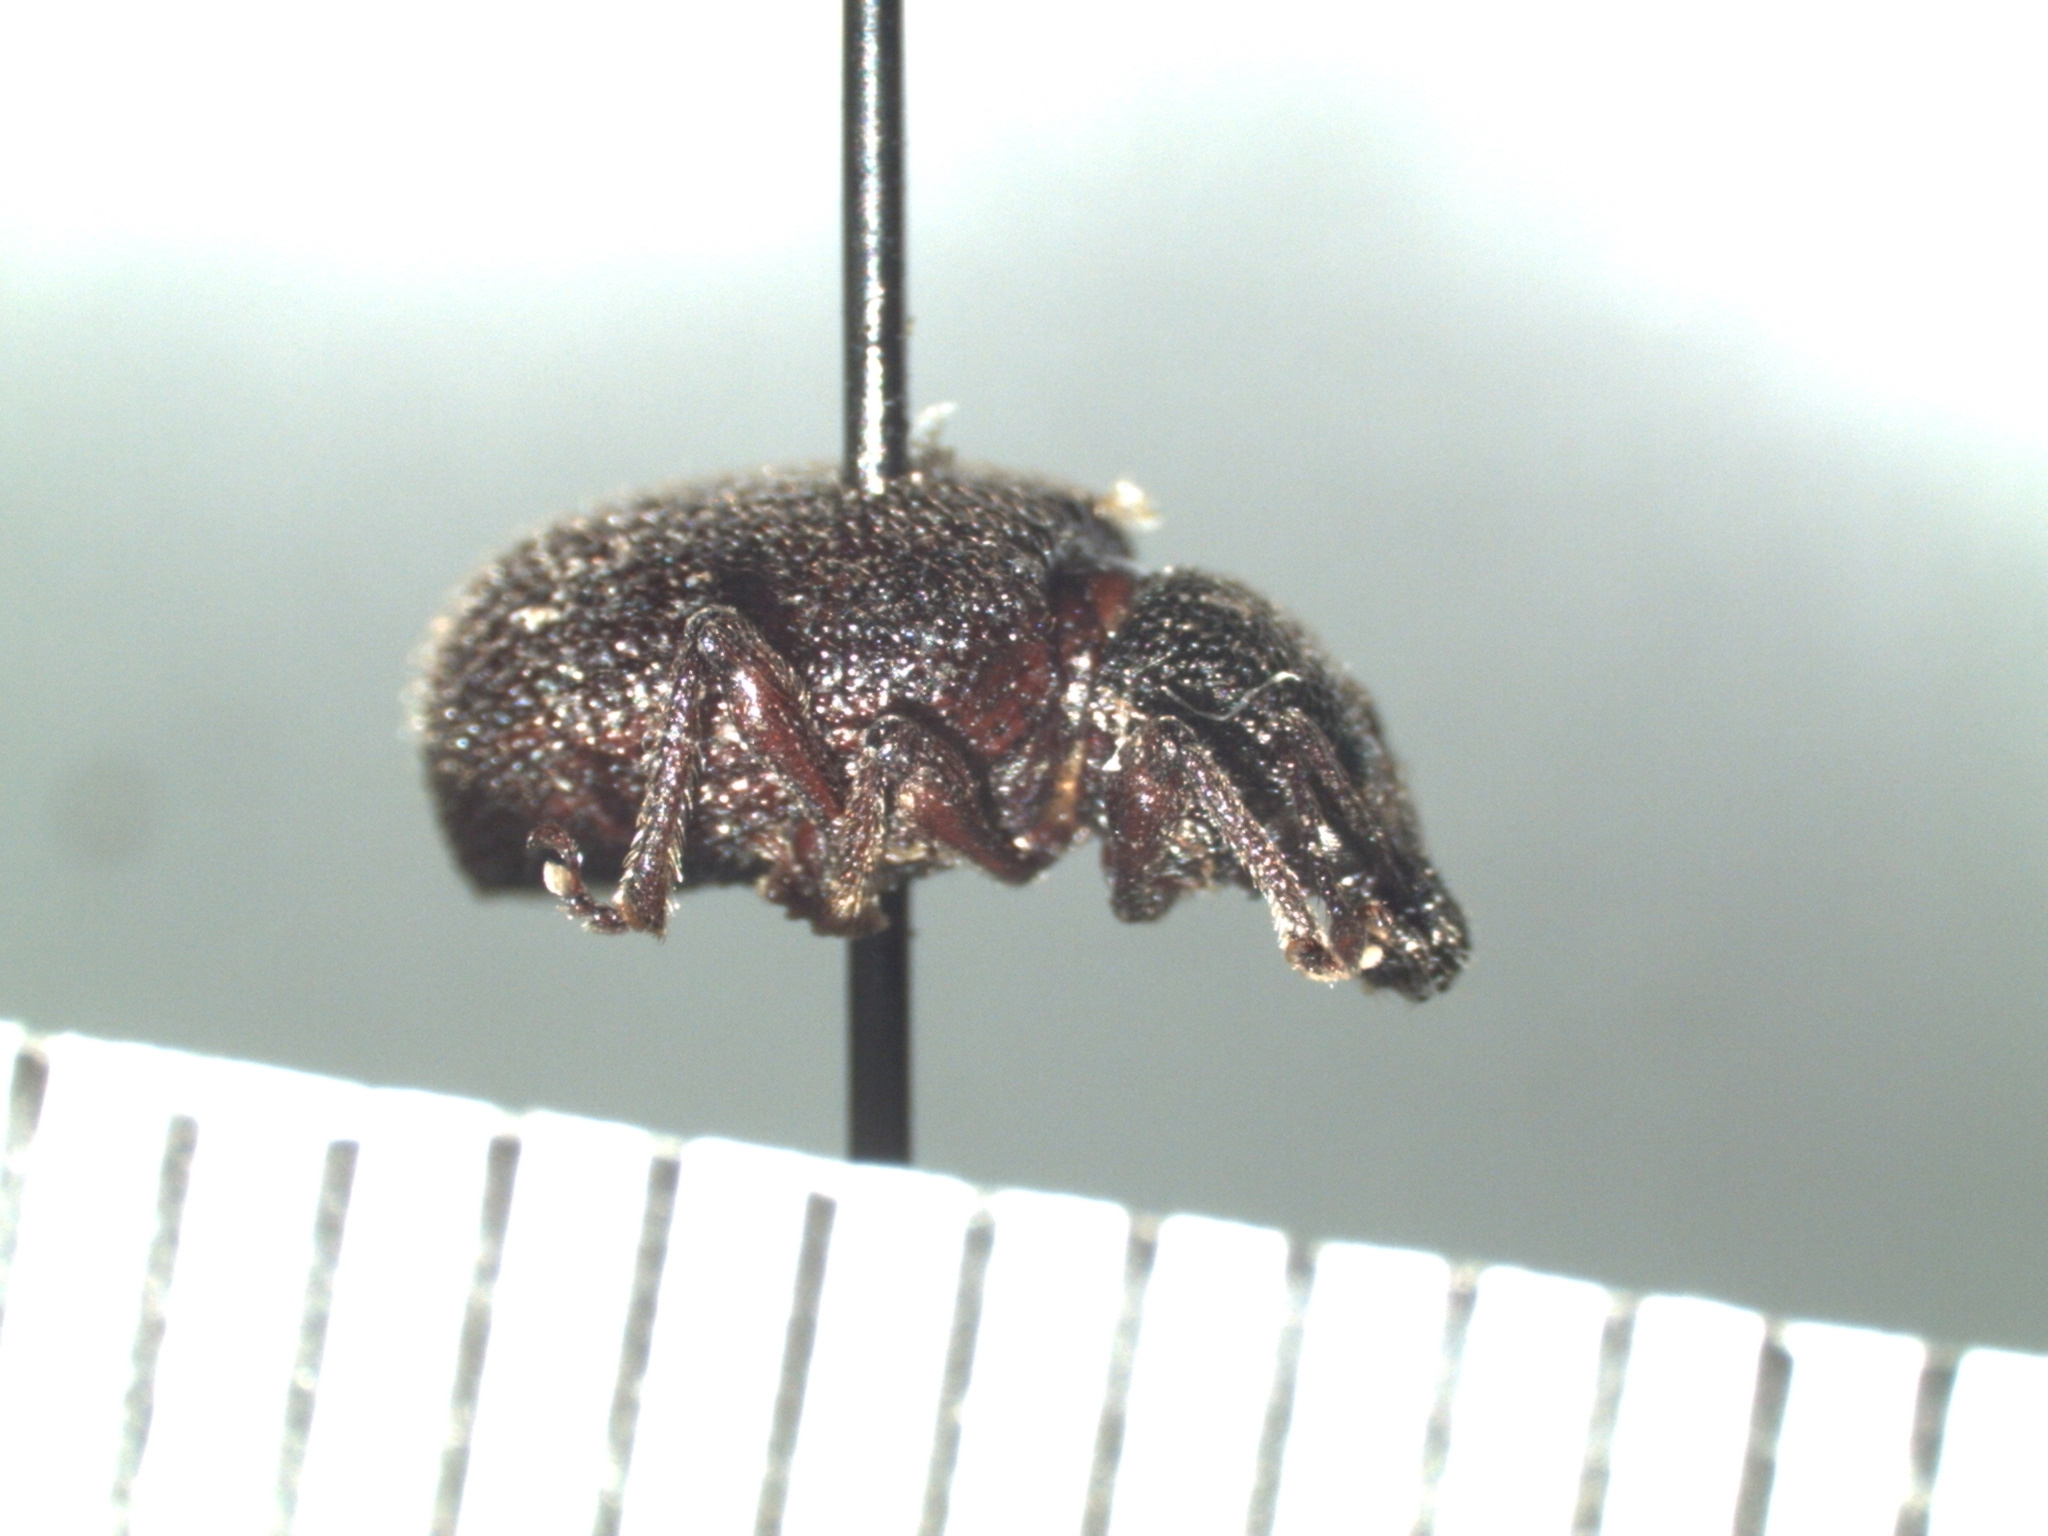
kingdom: Animalia
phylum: Arthropoda
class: Insecta
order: Coleoptera
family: Curculionidae
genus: Otiorhynchus
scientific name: Otiorhynchus rugosostriatus
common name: Weevil
